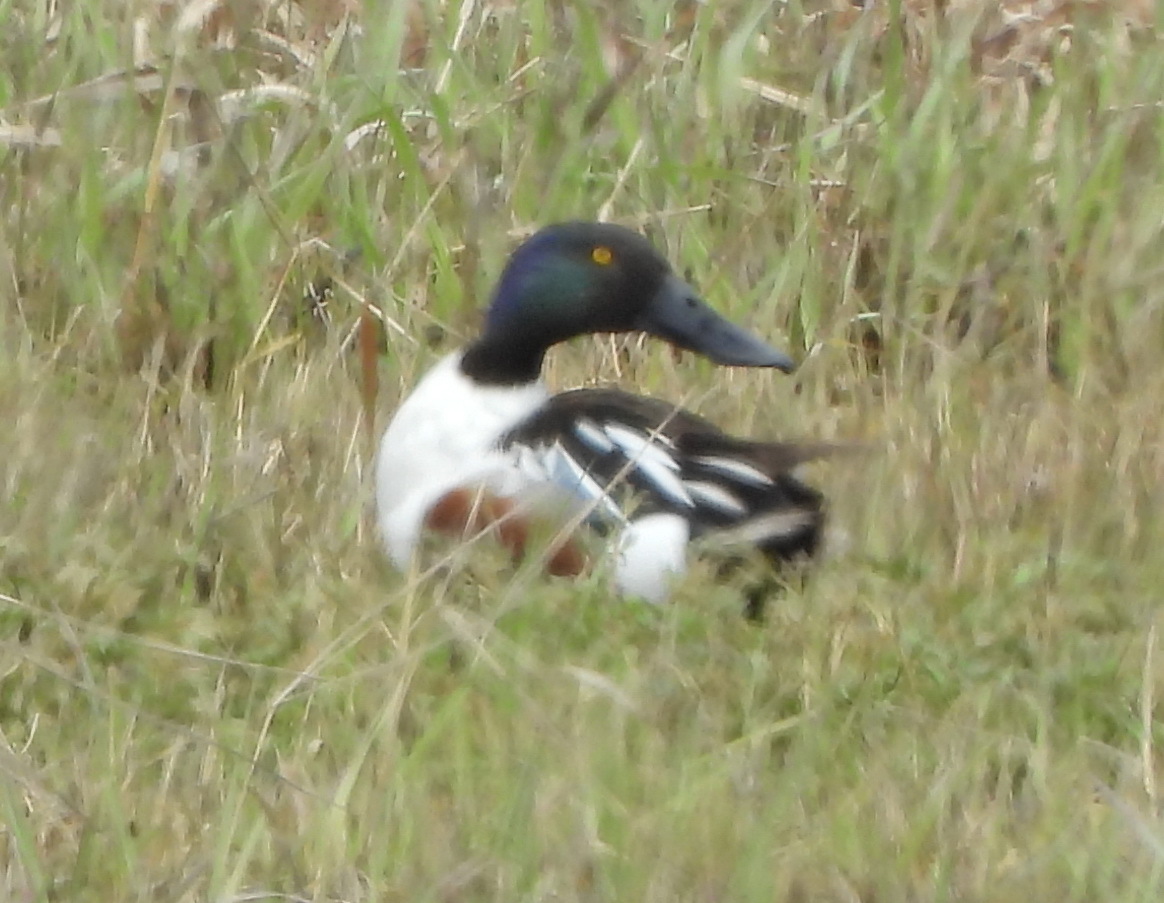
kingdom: Animalia
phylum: Chordata
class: Aves
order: Anseriformes
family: Anatidae
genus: Spatula
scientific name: Spatula clypeata
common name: Northern shoveler
